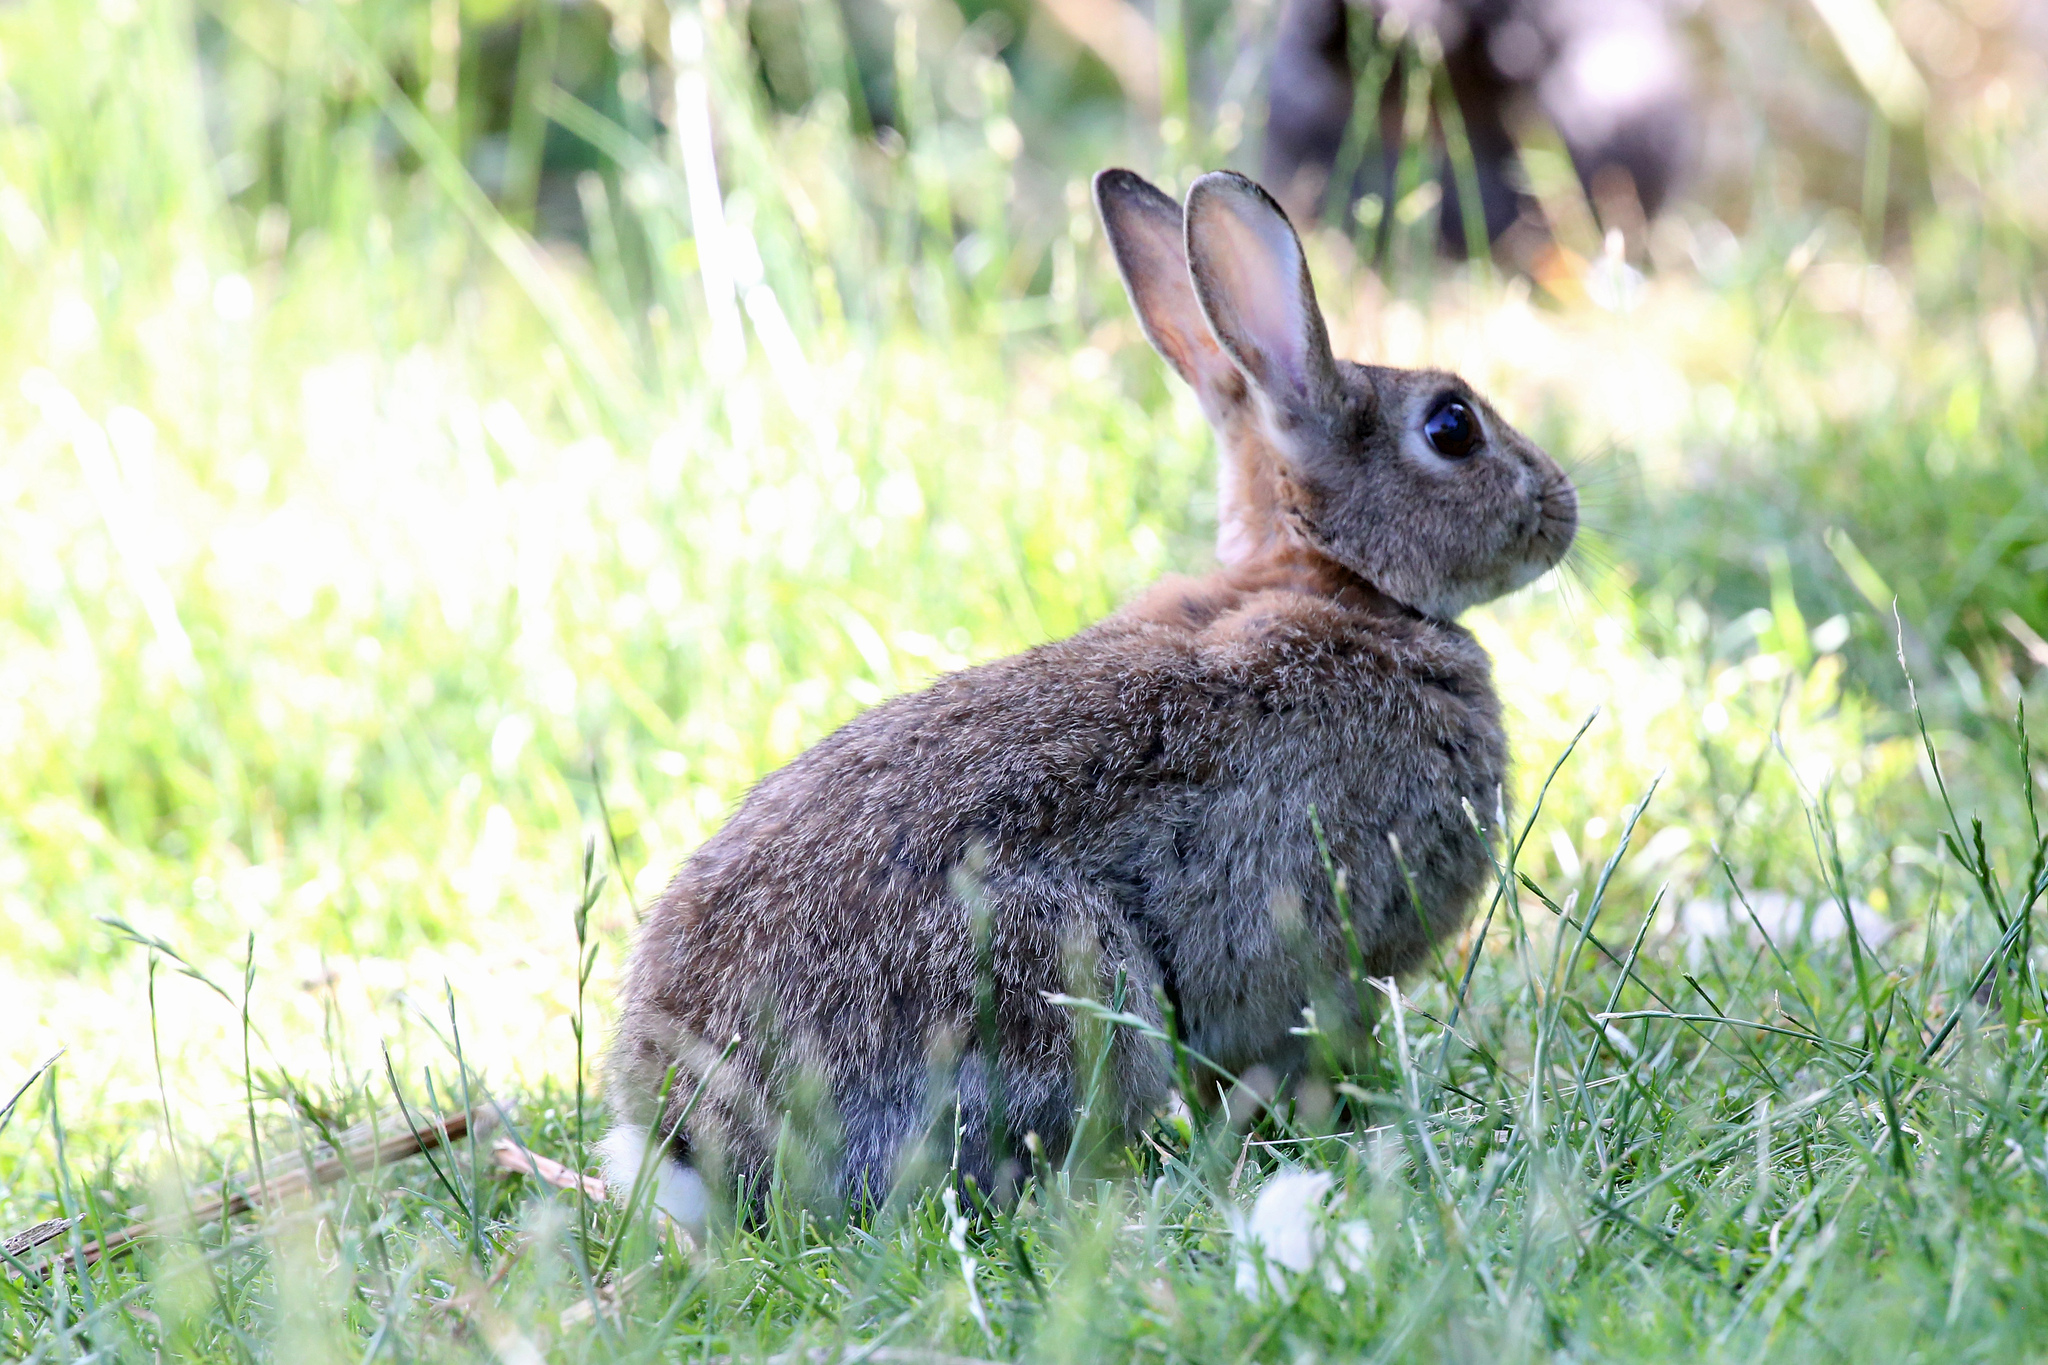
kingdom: Animalia
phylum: Chordata
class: Mammalia
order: Lagomorpha
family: Leporidae
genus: Oryctolagus
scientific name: Oryctolagus cuniculus
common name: European rabbit
